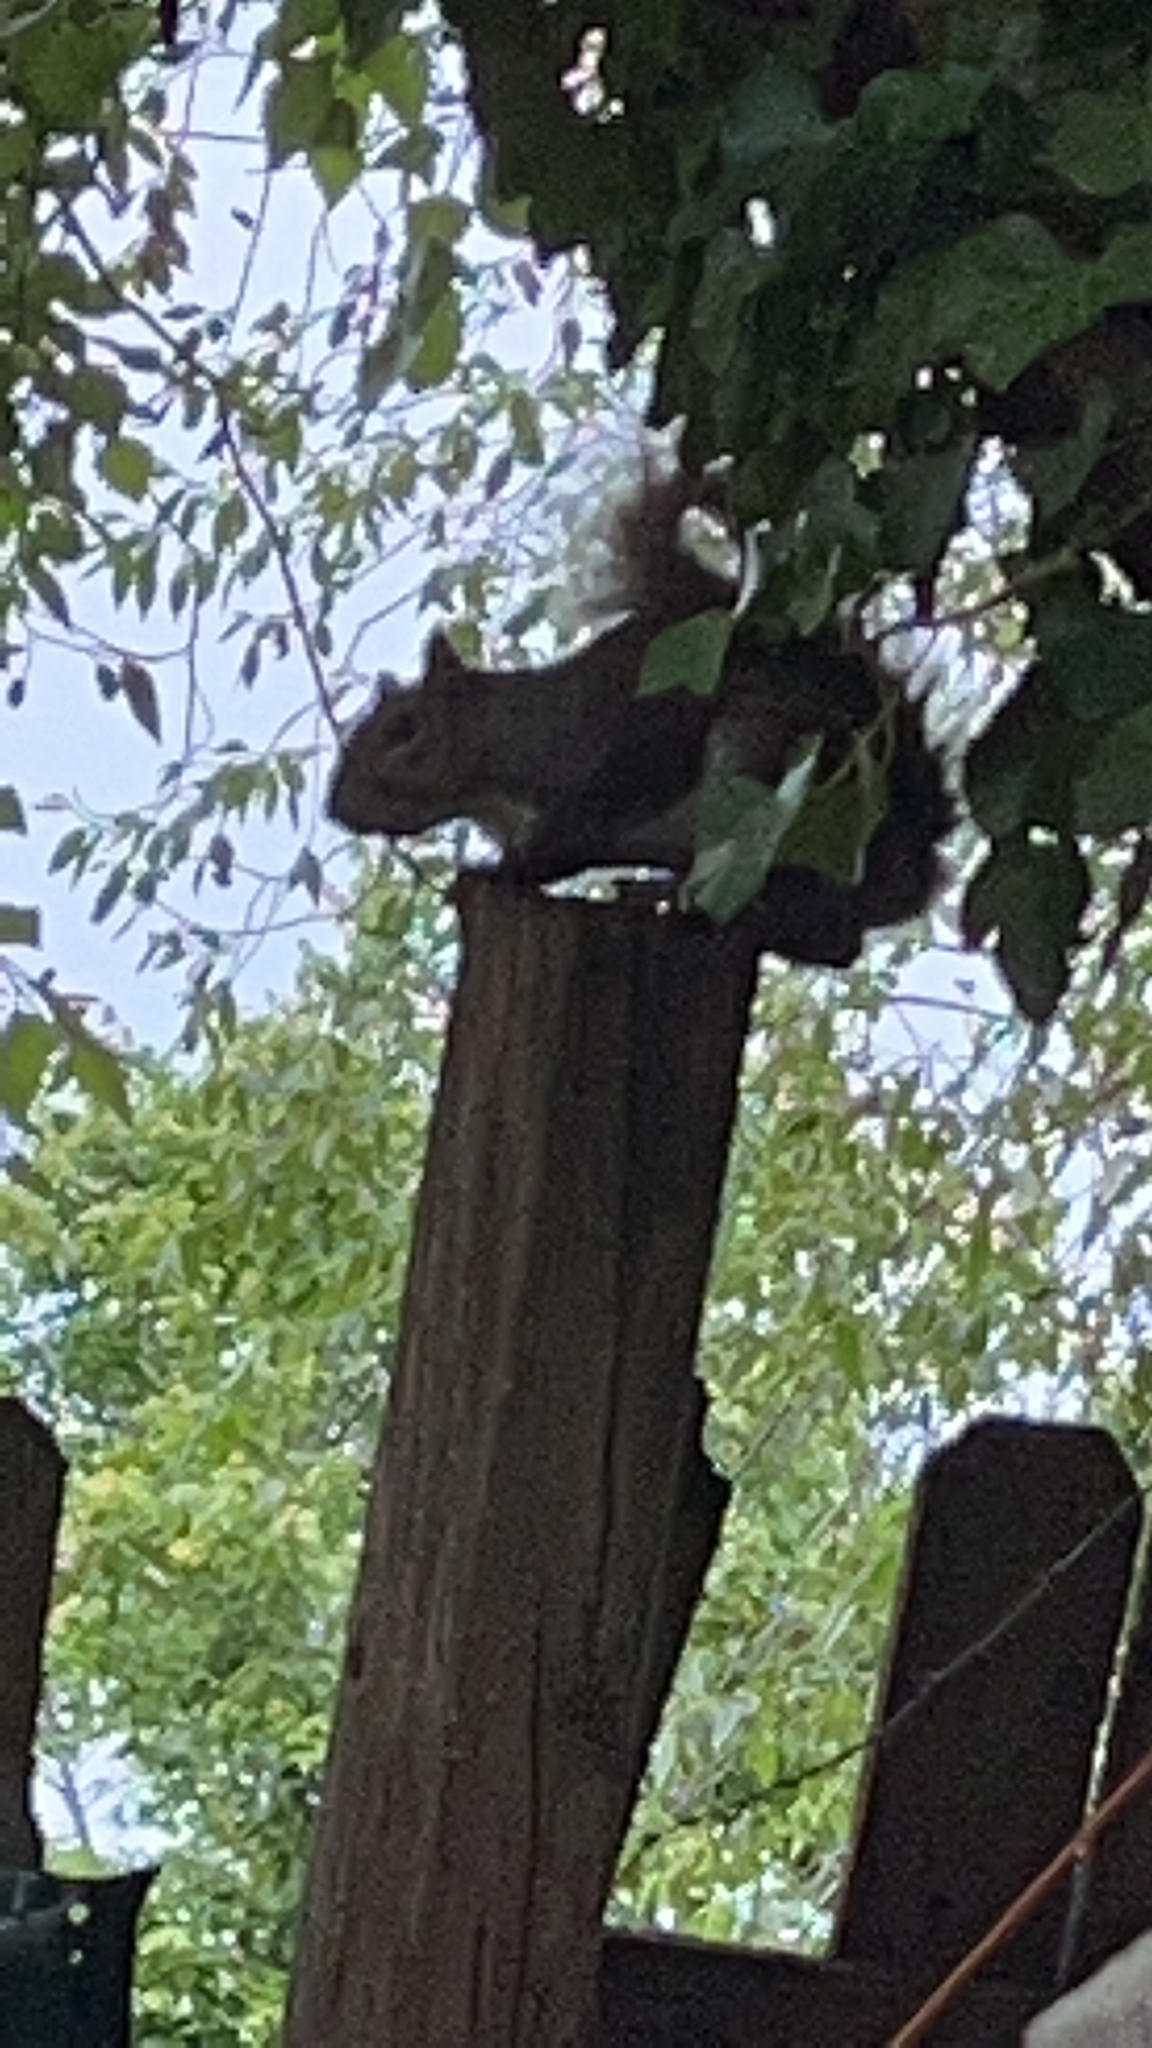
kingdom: Animalia
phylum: Chordata
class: Mammalia
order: Rodentia
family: Sciuridae
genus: Sciurus
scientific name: Sciurus carolinensis
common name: Eastern gray squirrel
